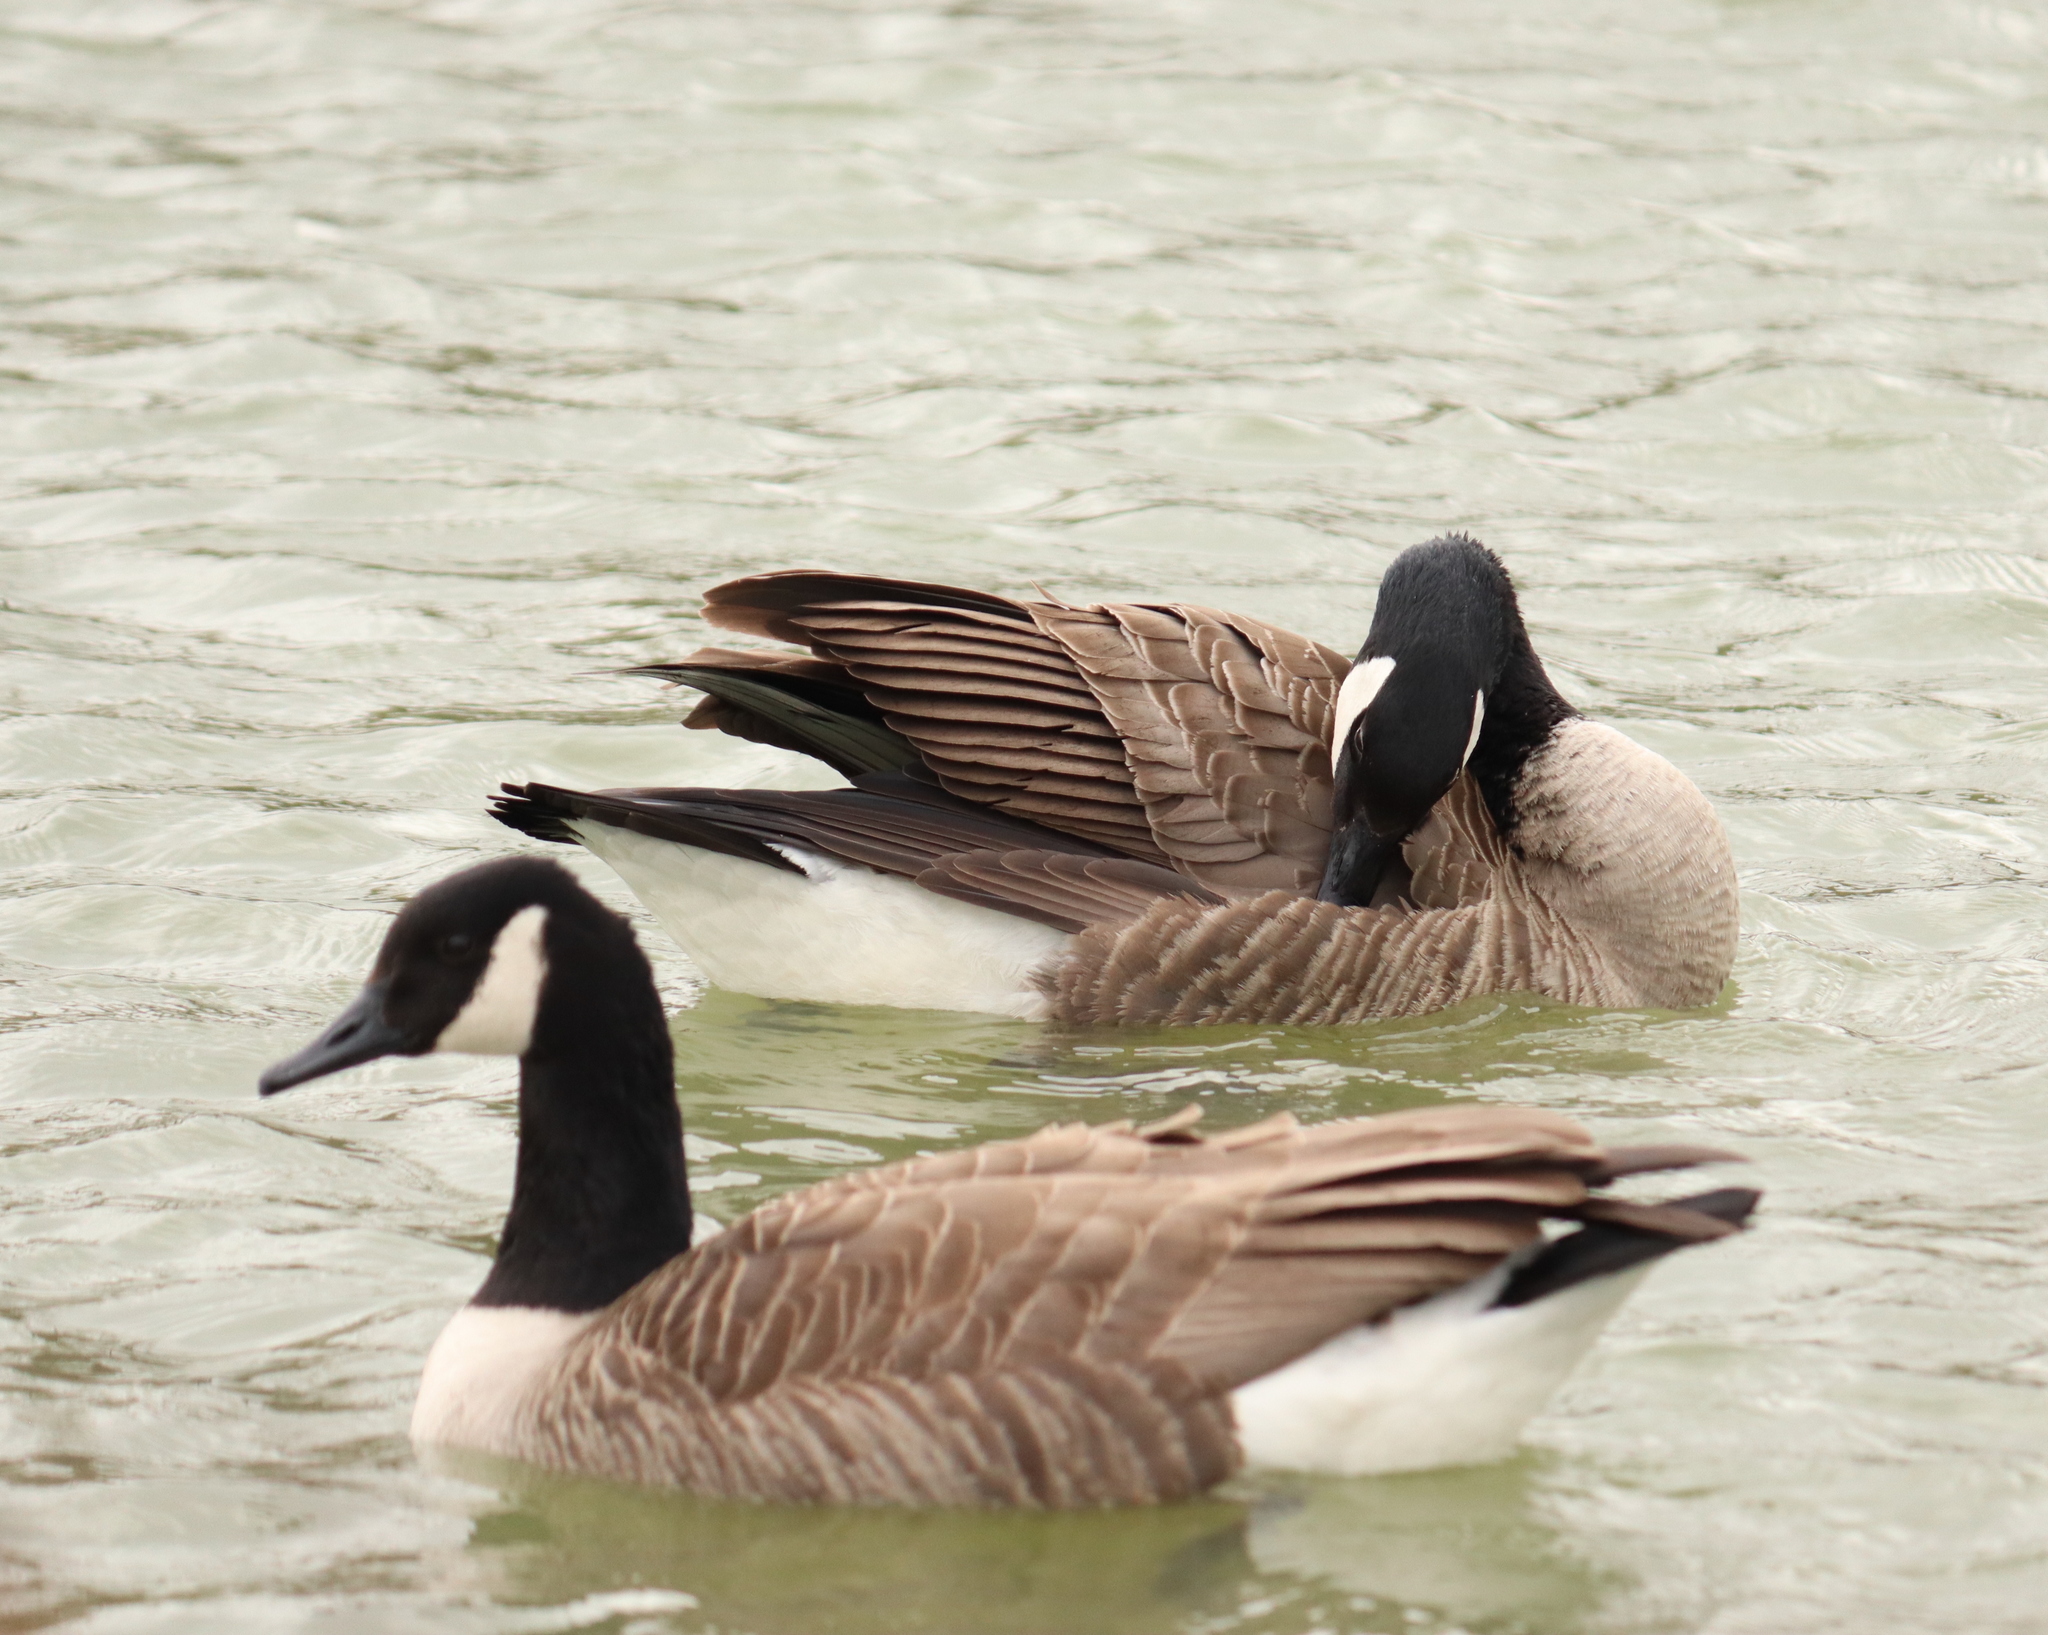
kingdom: Animalia
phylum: Chordata
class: Aves
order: Anseriformes
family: Anatidae
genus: Branta
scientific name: Branta canadensis
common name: Canada goose
